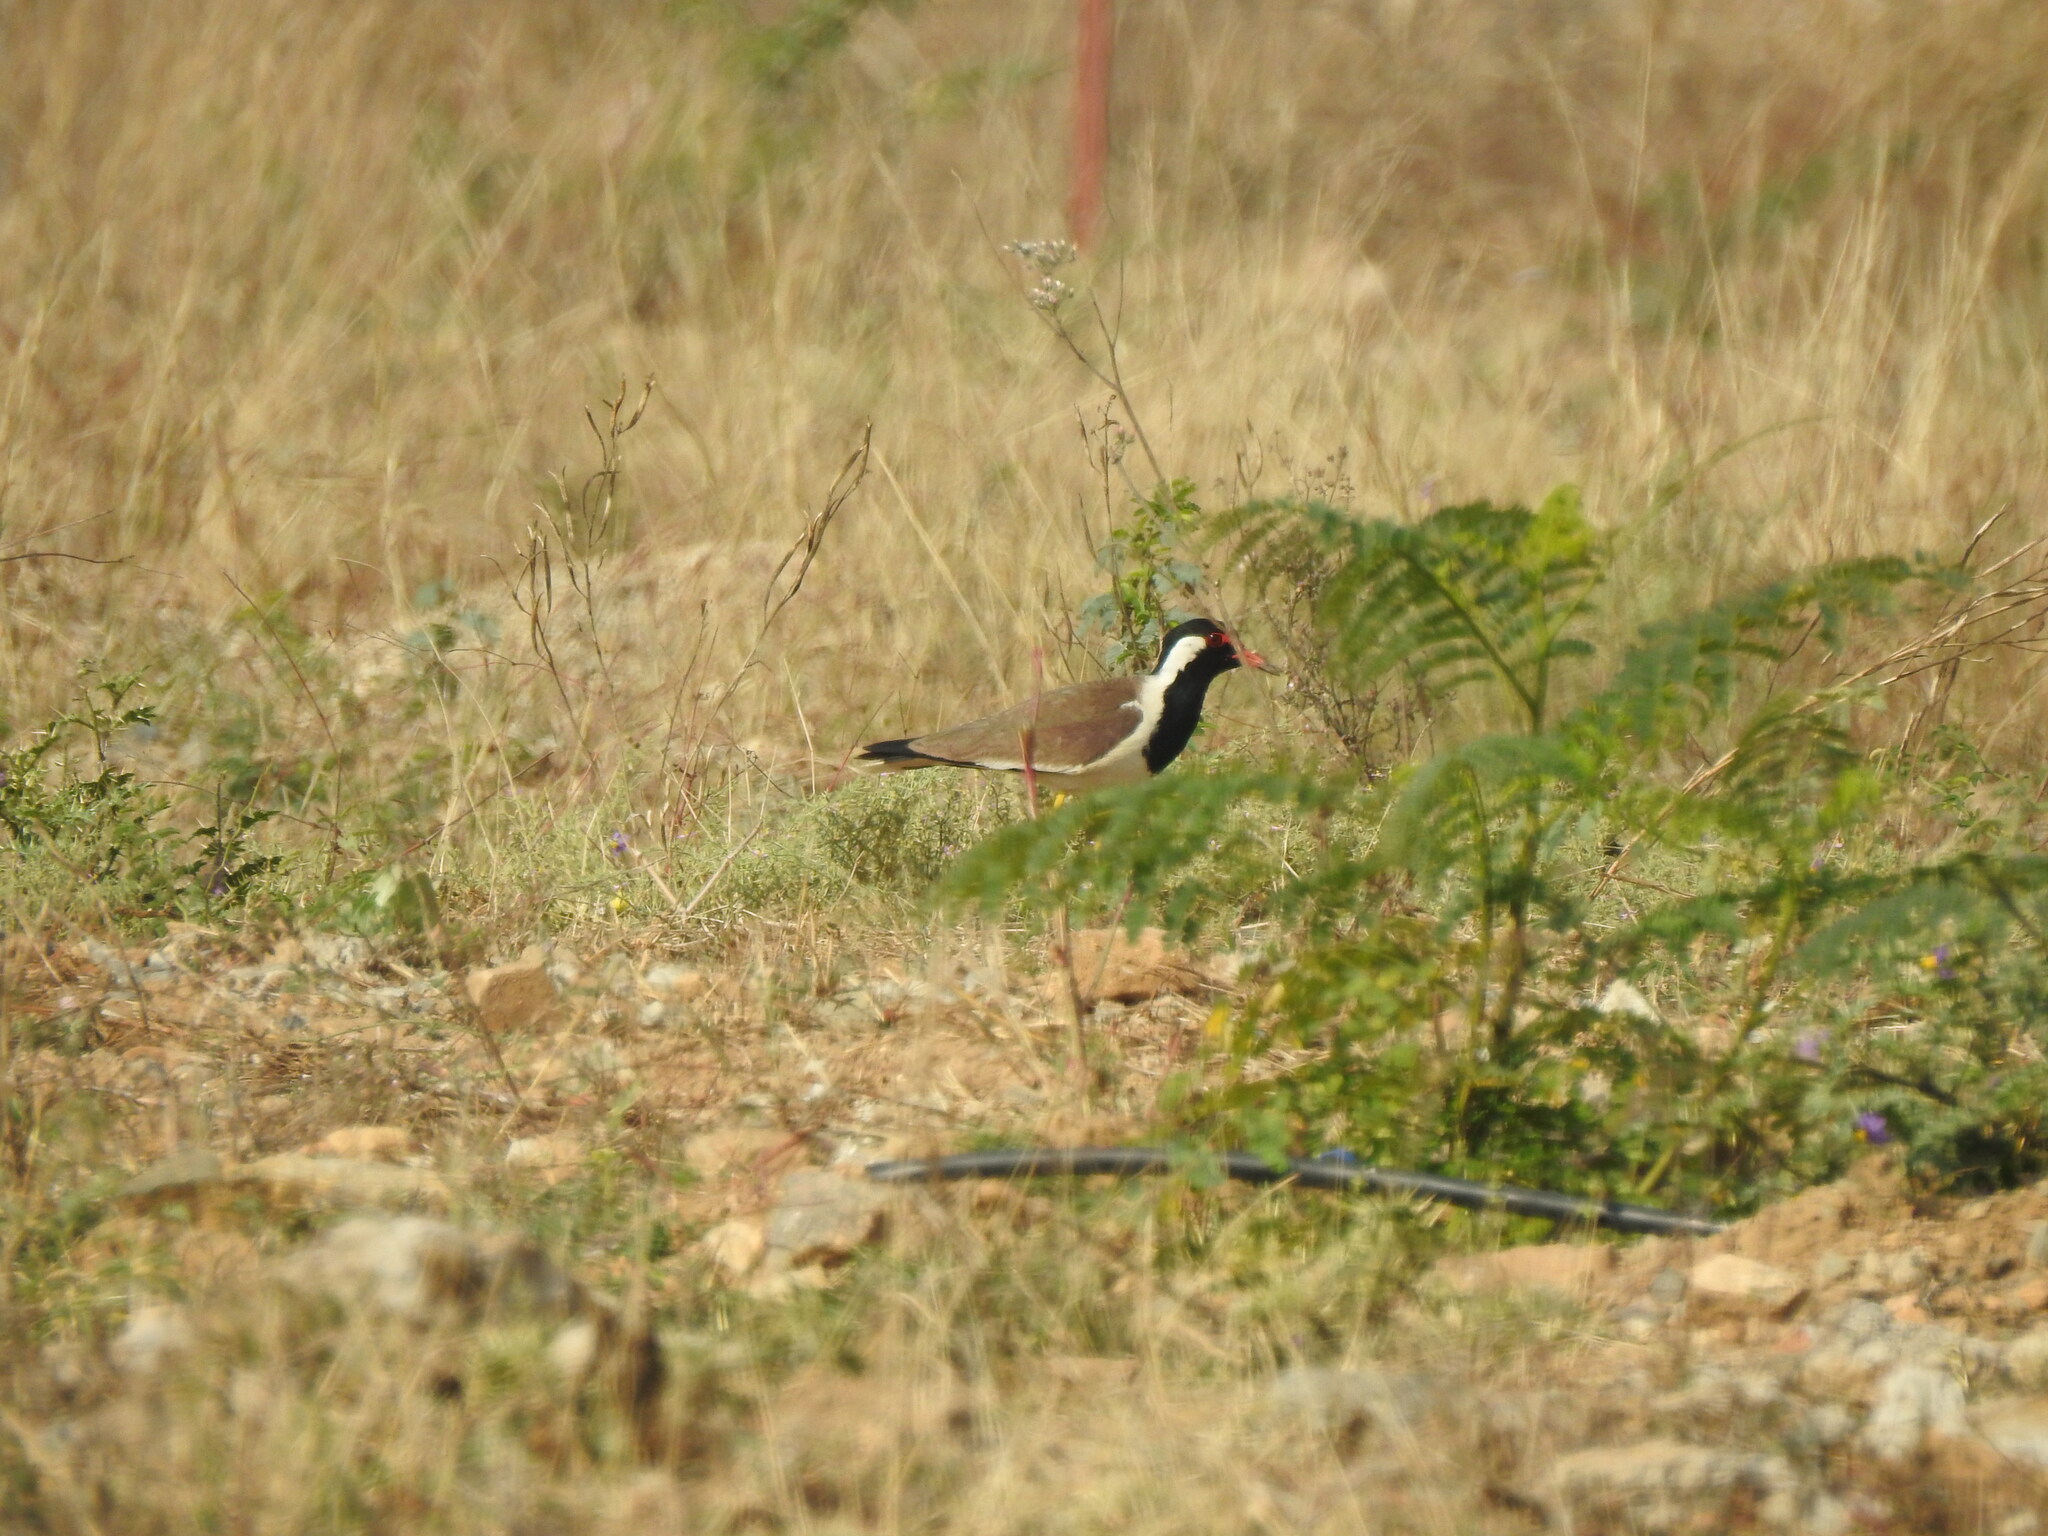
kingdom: Animalia
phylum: Chordata
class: Aves
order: Charadriiformes
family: Charadriidae
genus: Vanellus
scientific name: Vanellus indicus
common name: Red-wattled lapwing
